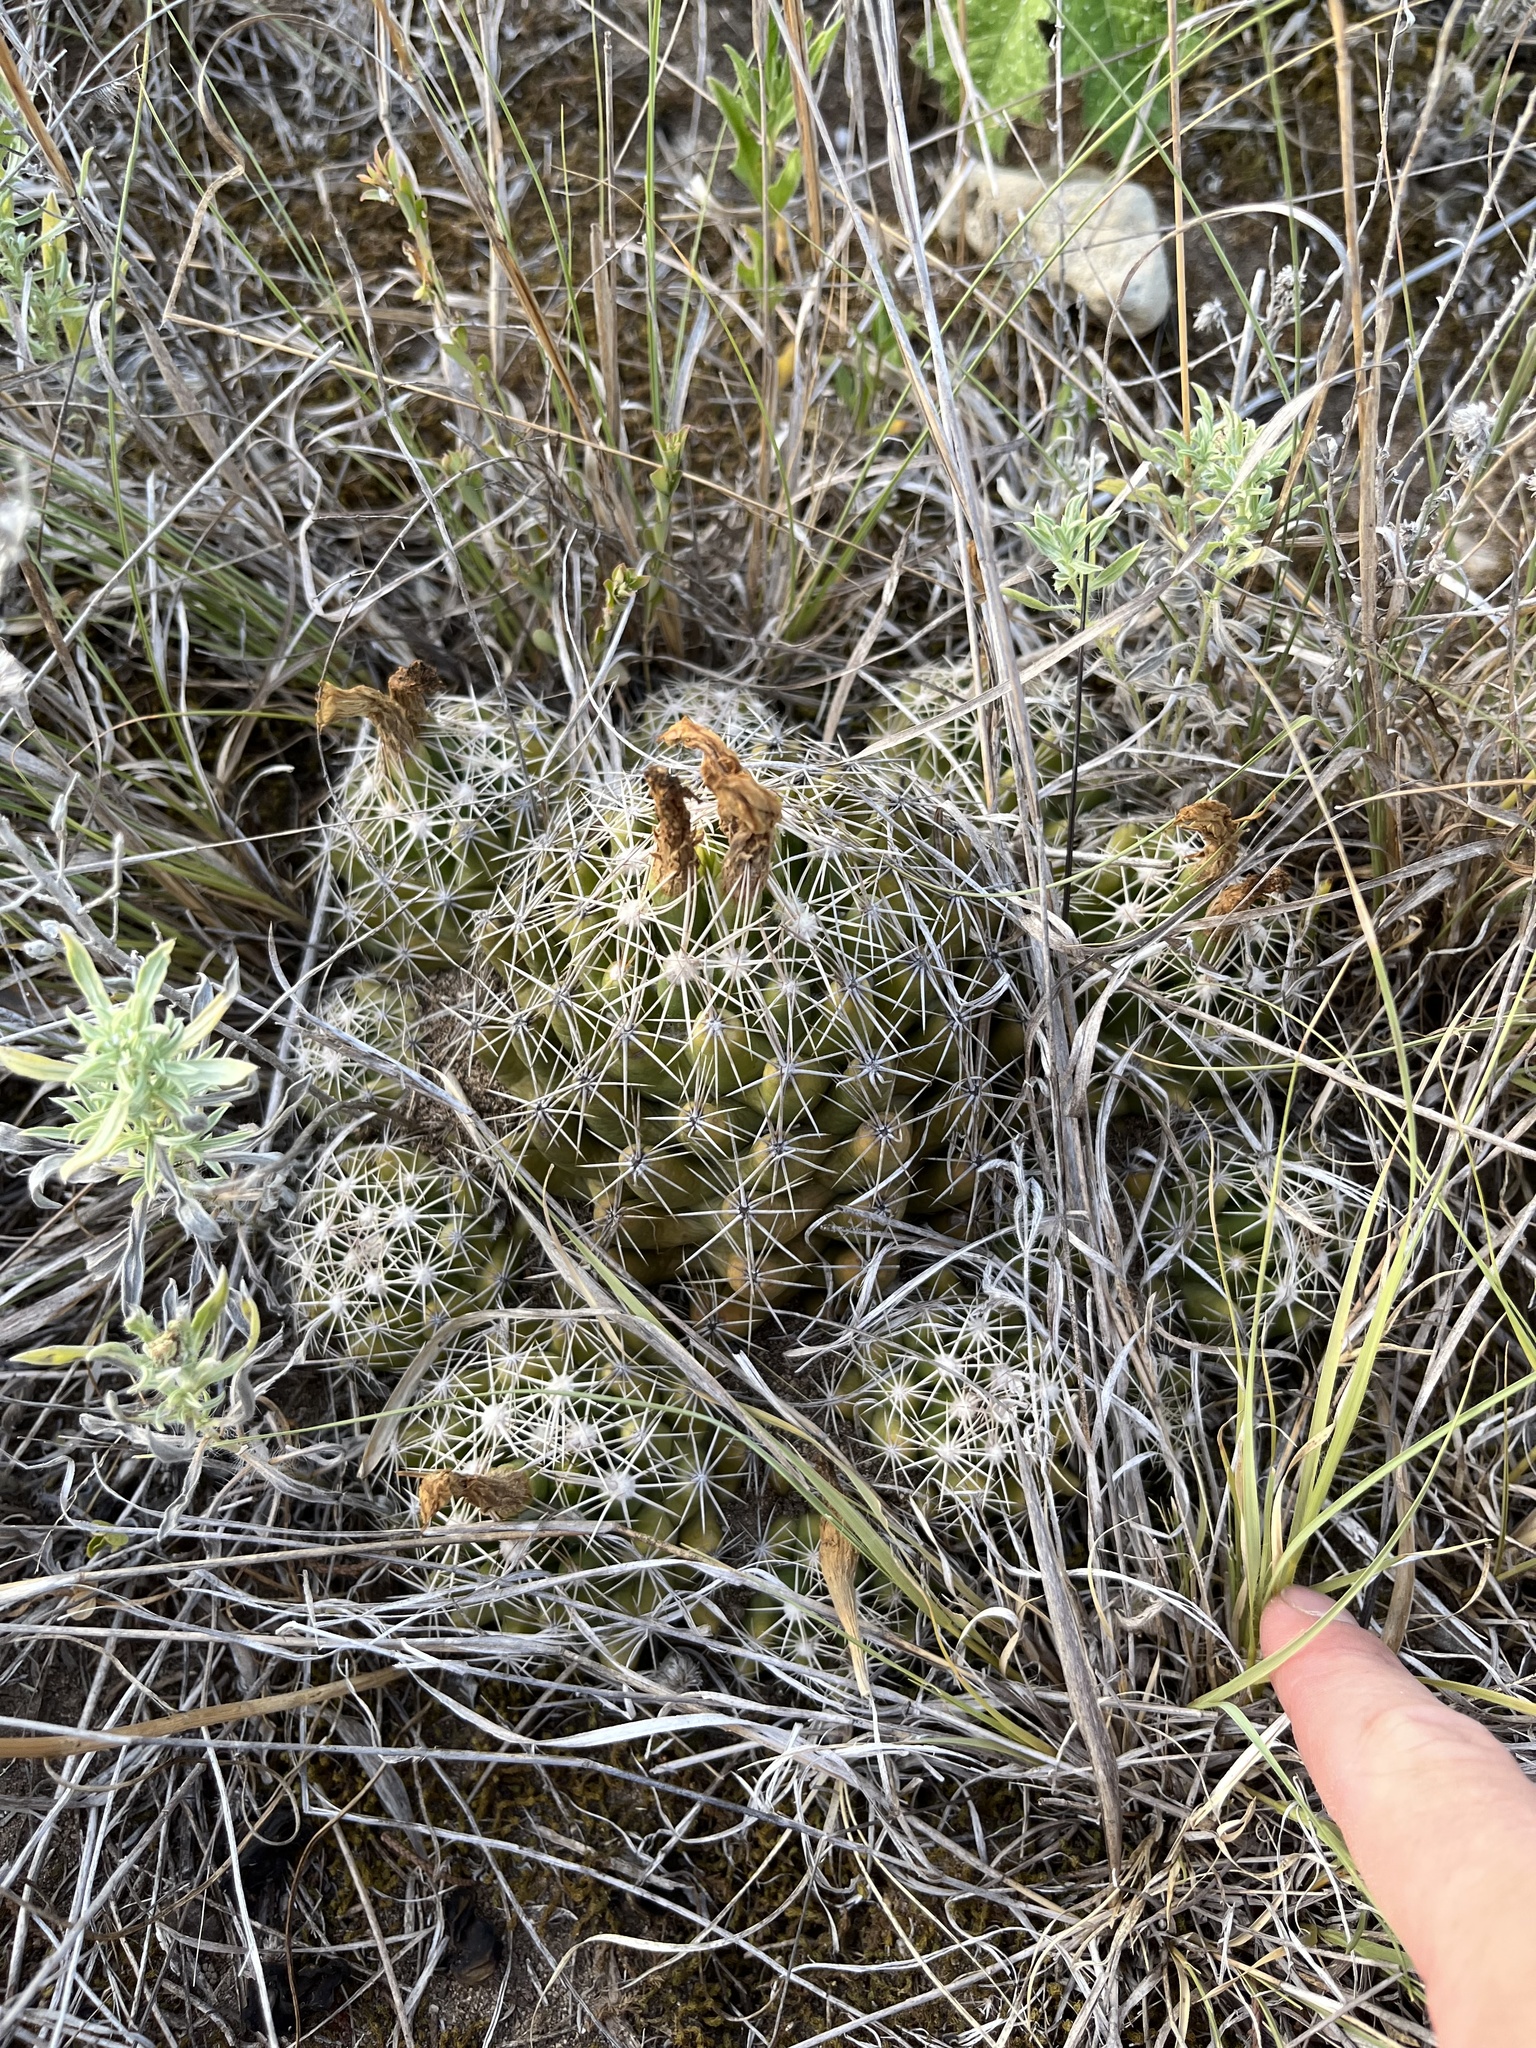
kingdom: Plantae
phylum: Tracheophyta
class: Magnoliopsida
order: Caryophyllales
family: Cactaceae
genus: Coryphantha
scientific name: Coryphantha sulcata
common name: Finger cactus
